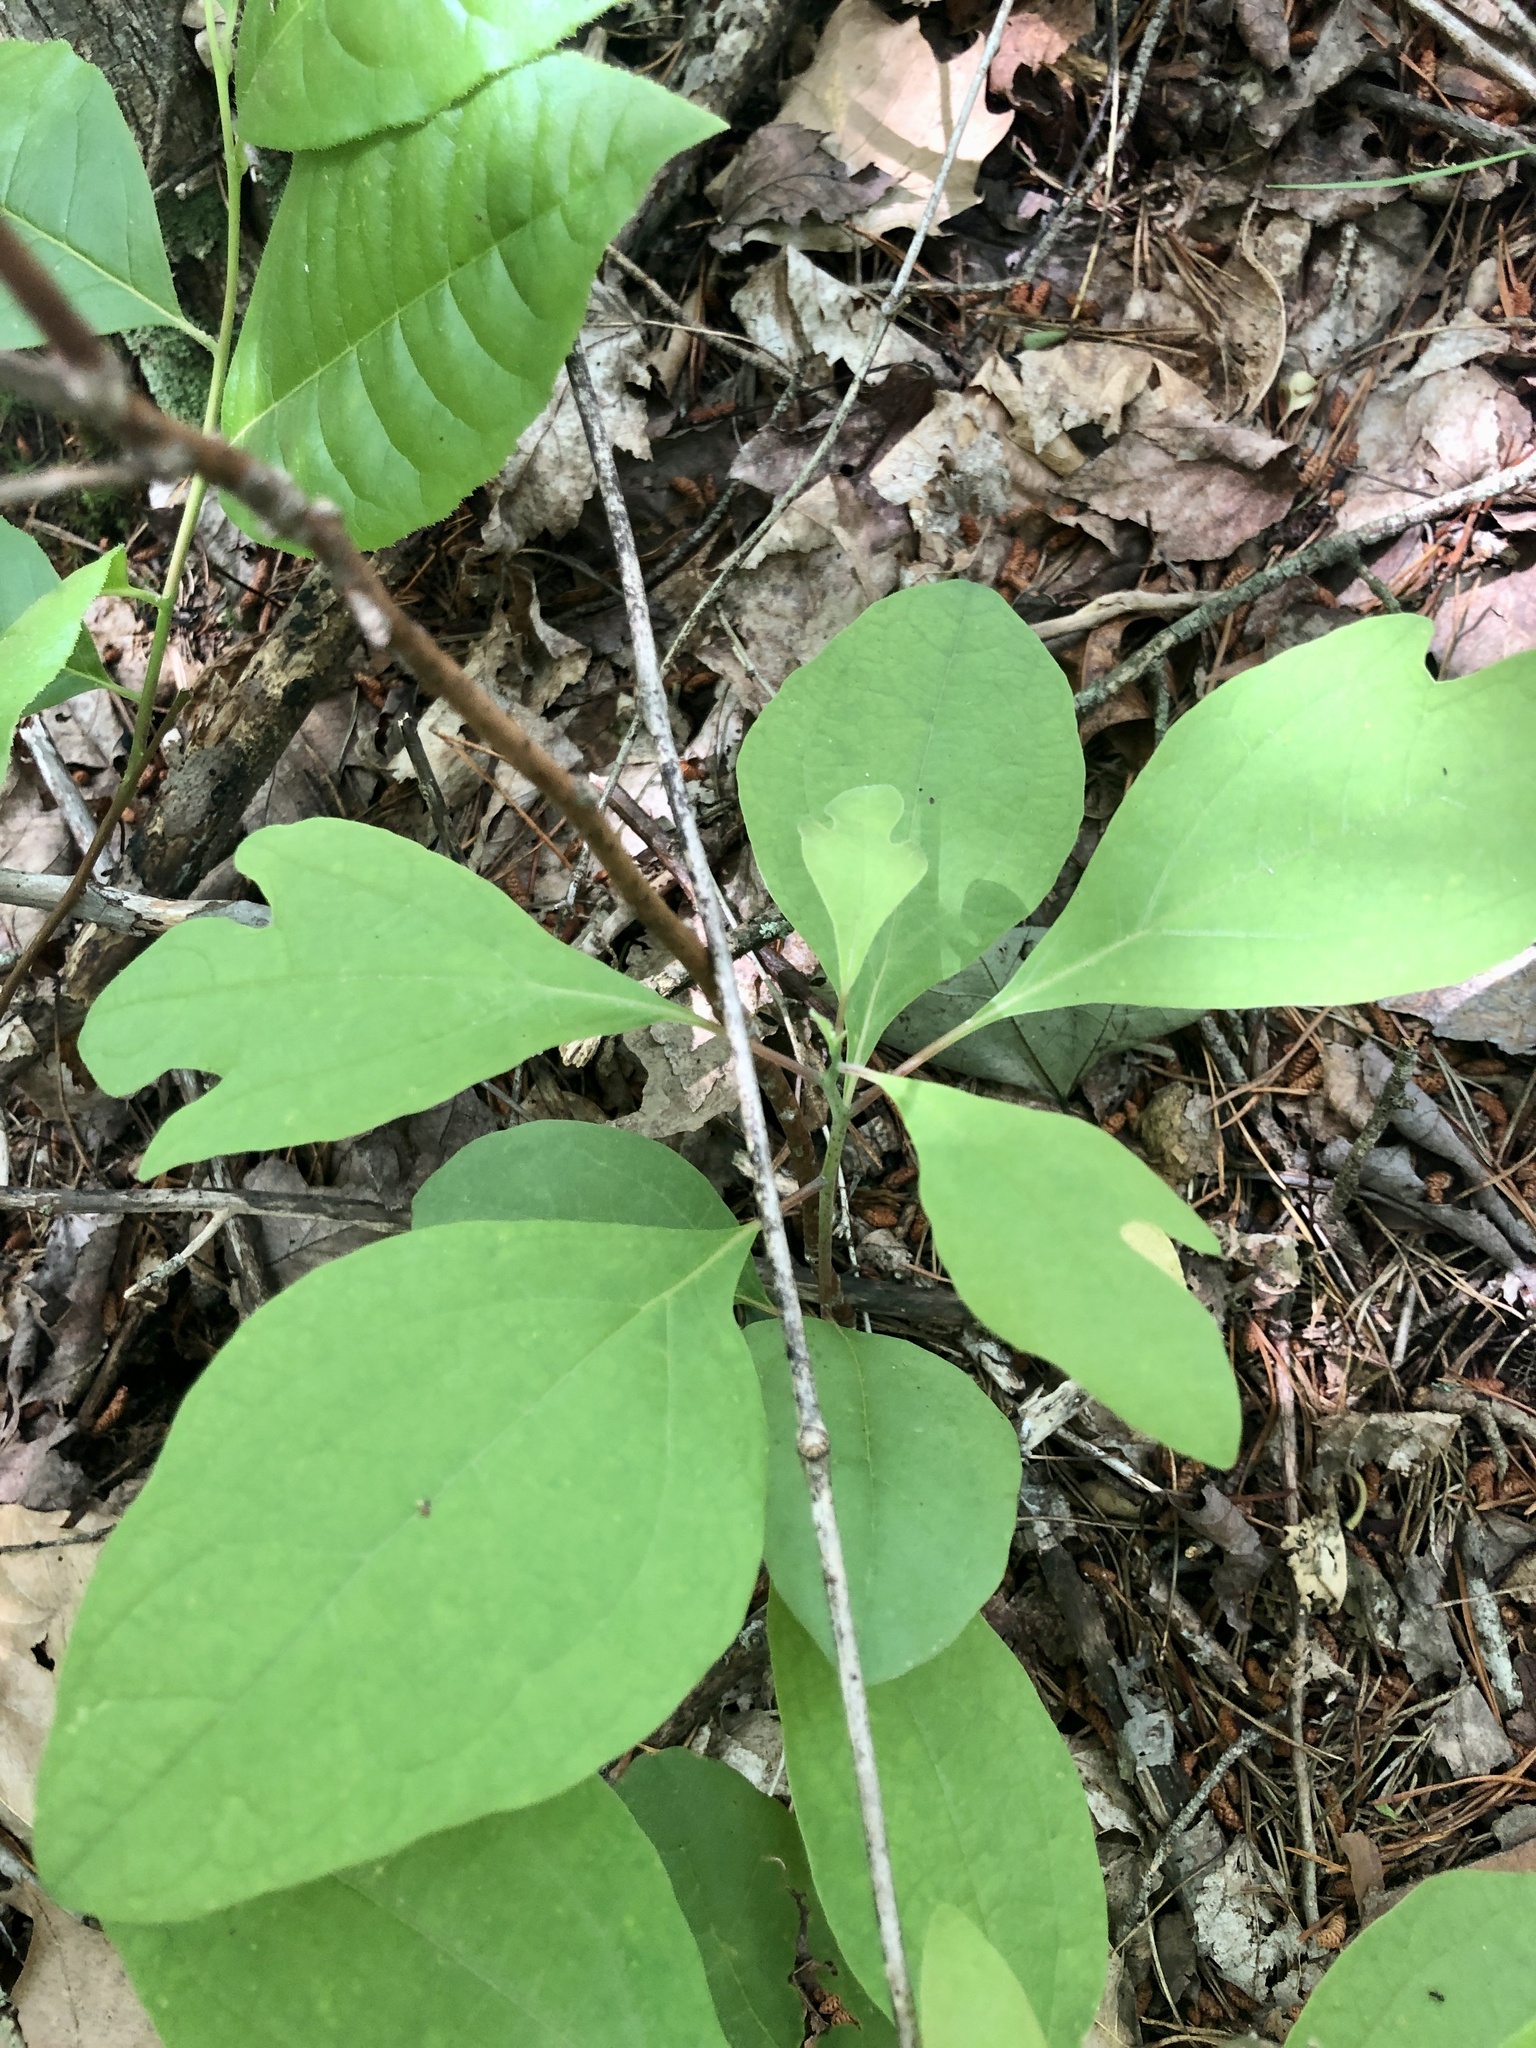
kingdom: Plantae
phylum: Tracheophyta
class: Magnoliopsida
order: Laurales
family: Lauraceae
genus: Sassafras
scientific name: Sassafras albidum
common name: Sassafras
